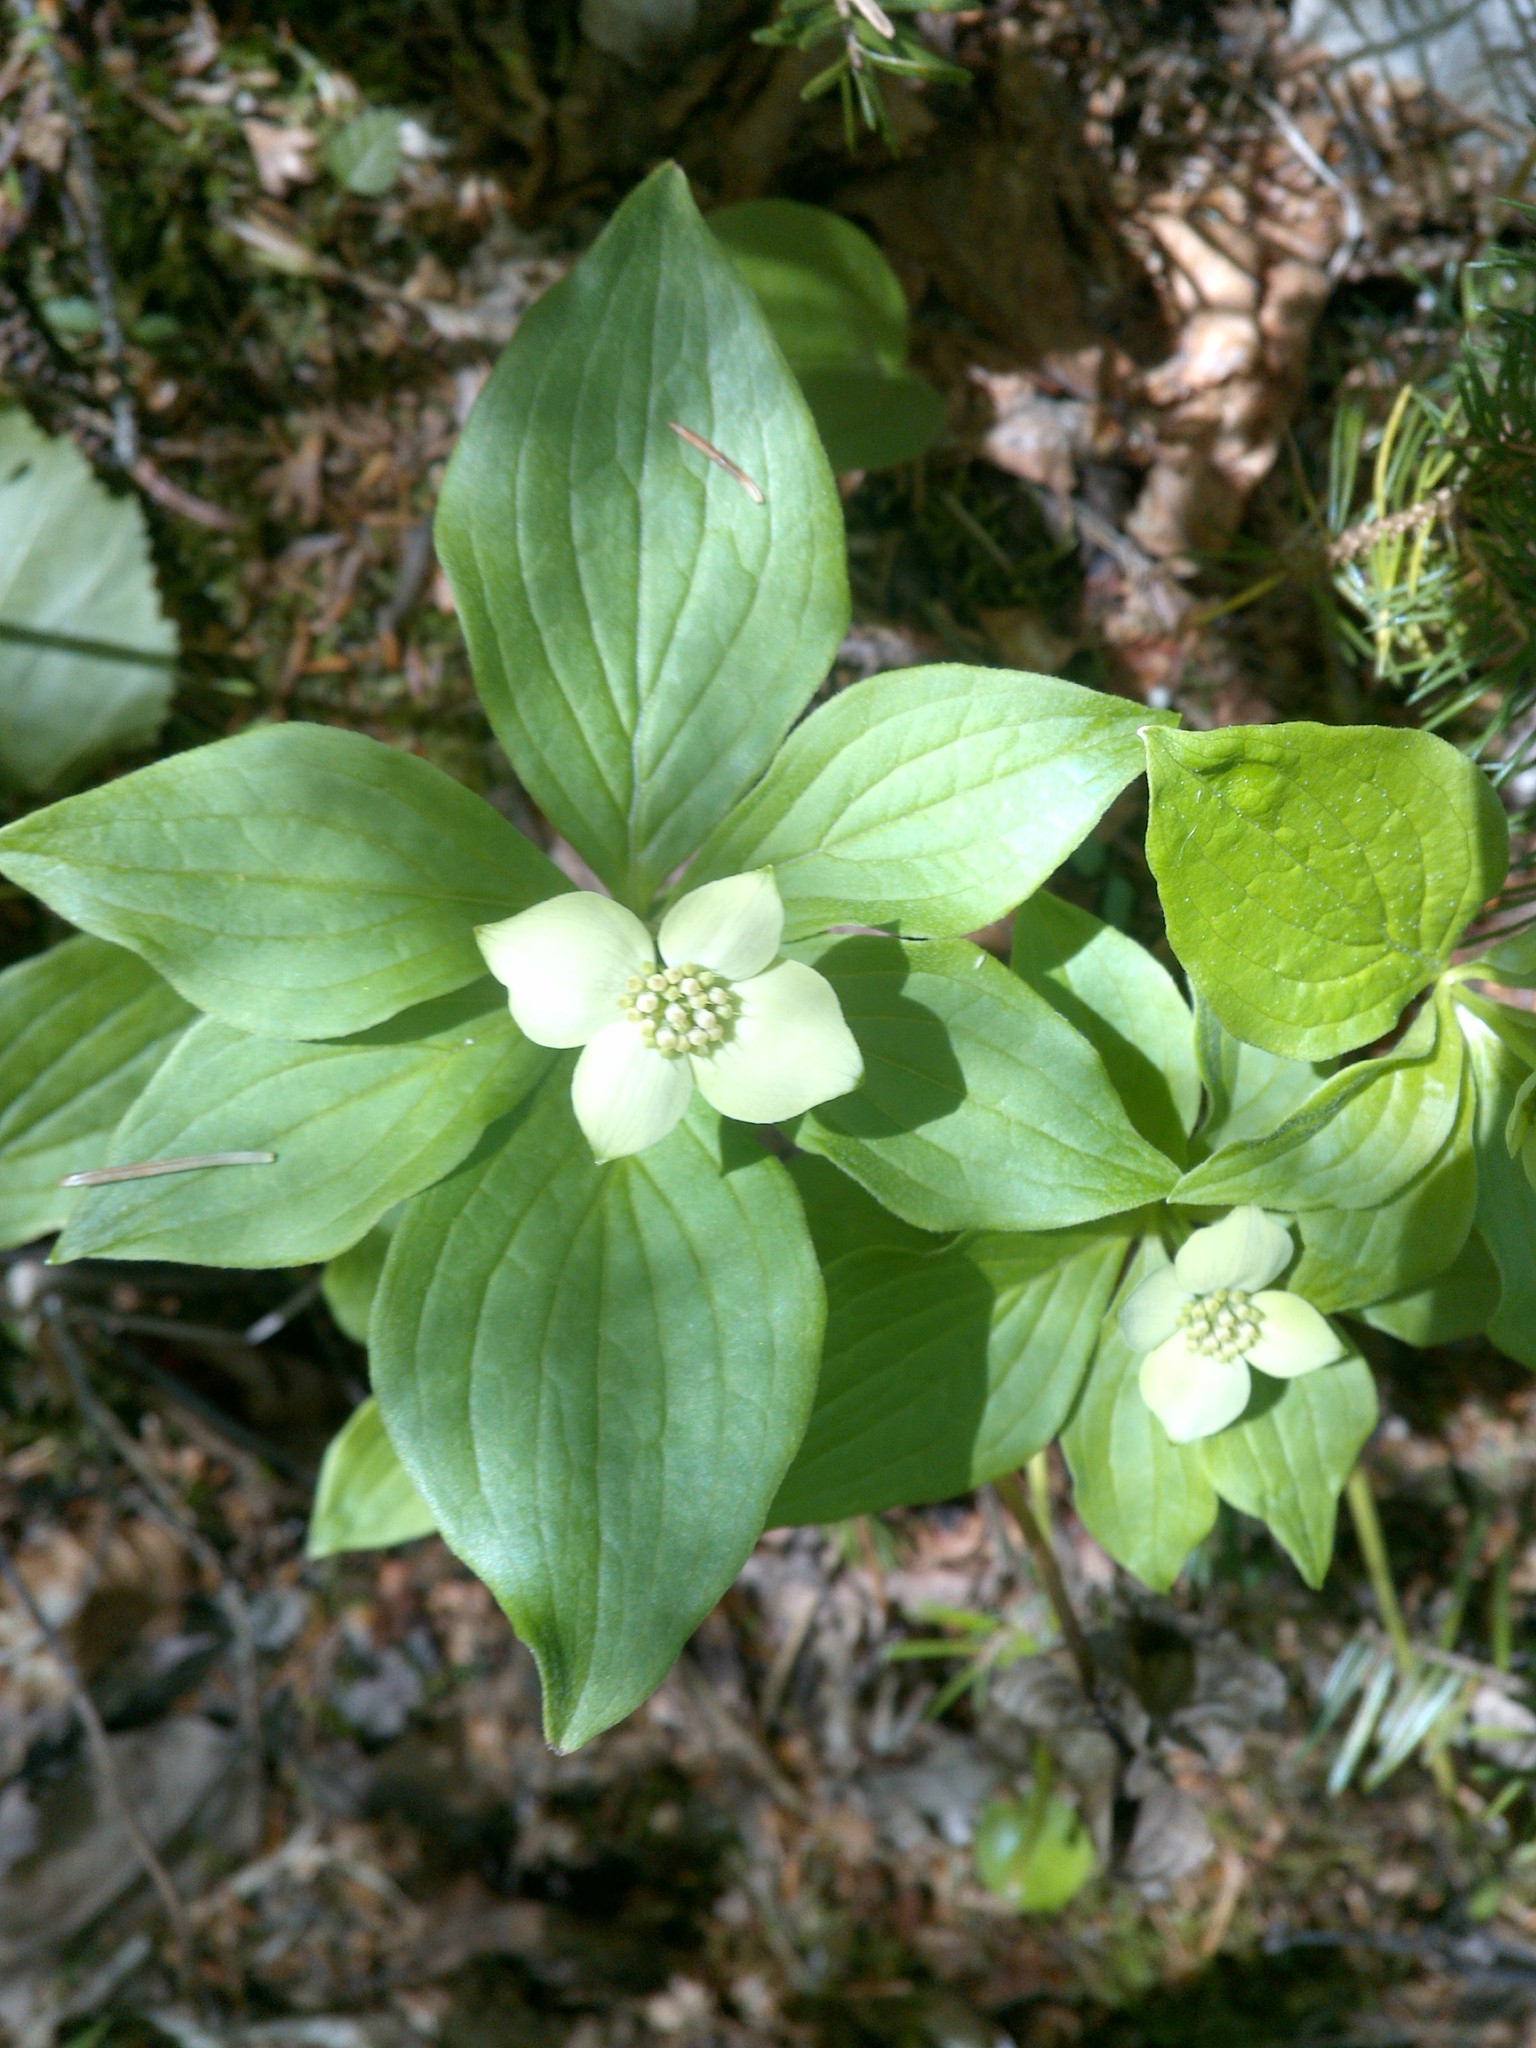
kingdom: Plantae
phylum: Tracheophyta
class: Magnoliopsida
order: Cornales
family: Cornaceae
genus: Cornus
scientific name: Cornus canadensis
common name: Creeping dogwood
